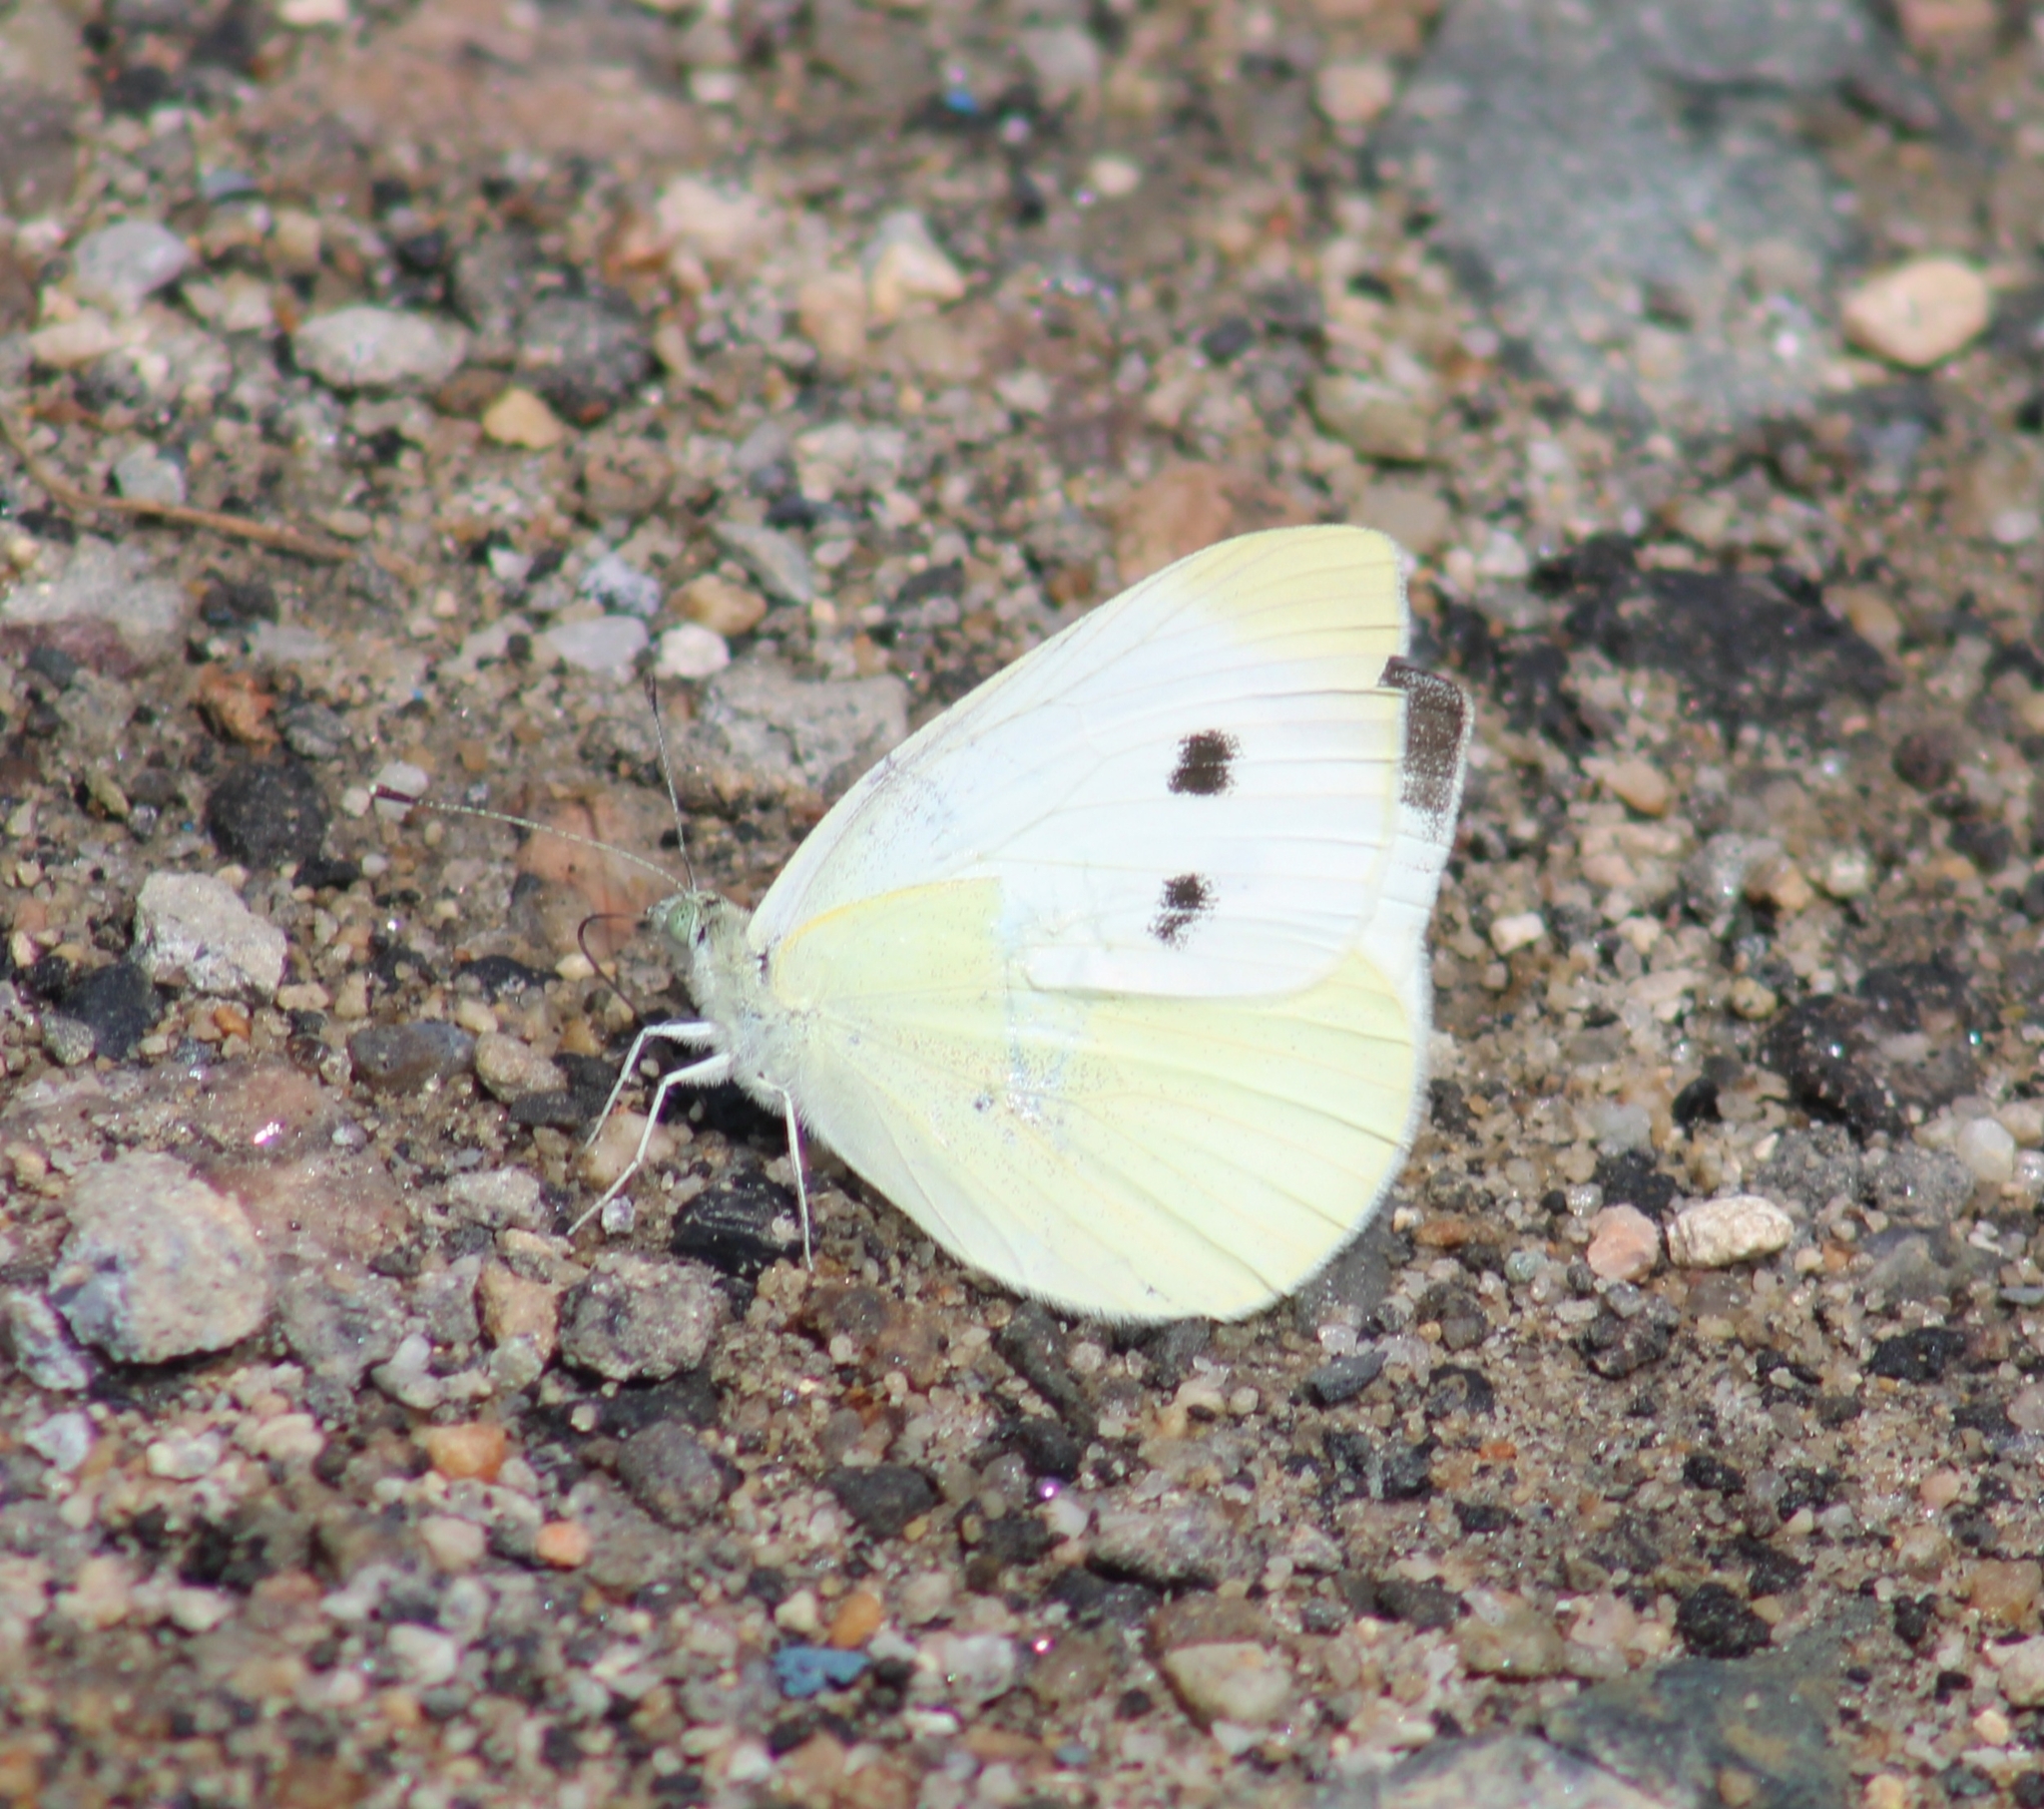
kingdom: Animalia
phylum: Arthropoda
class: Insecta
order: Lepidoptera
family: Pieridae
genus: Pieris
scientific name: Pieris rapae
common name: Small white
